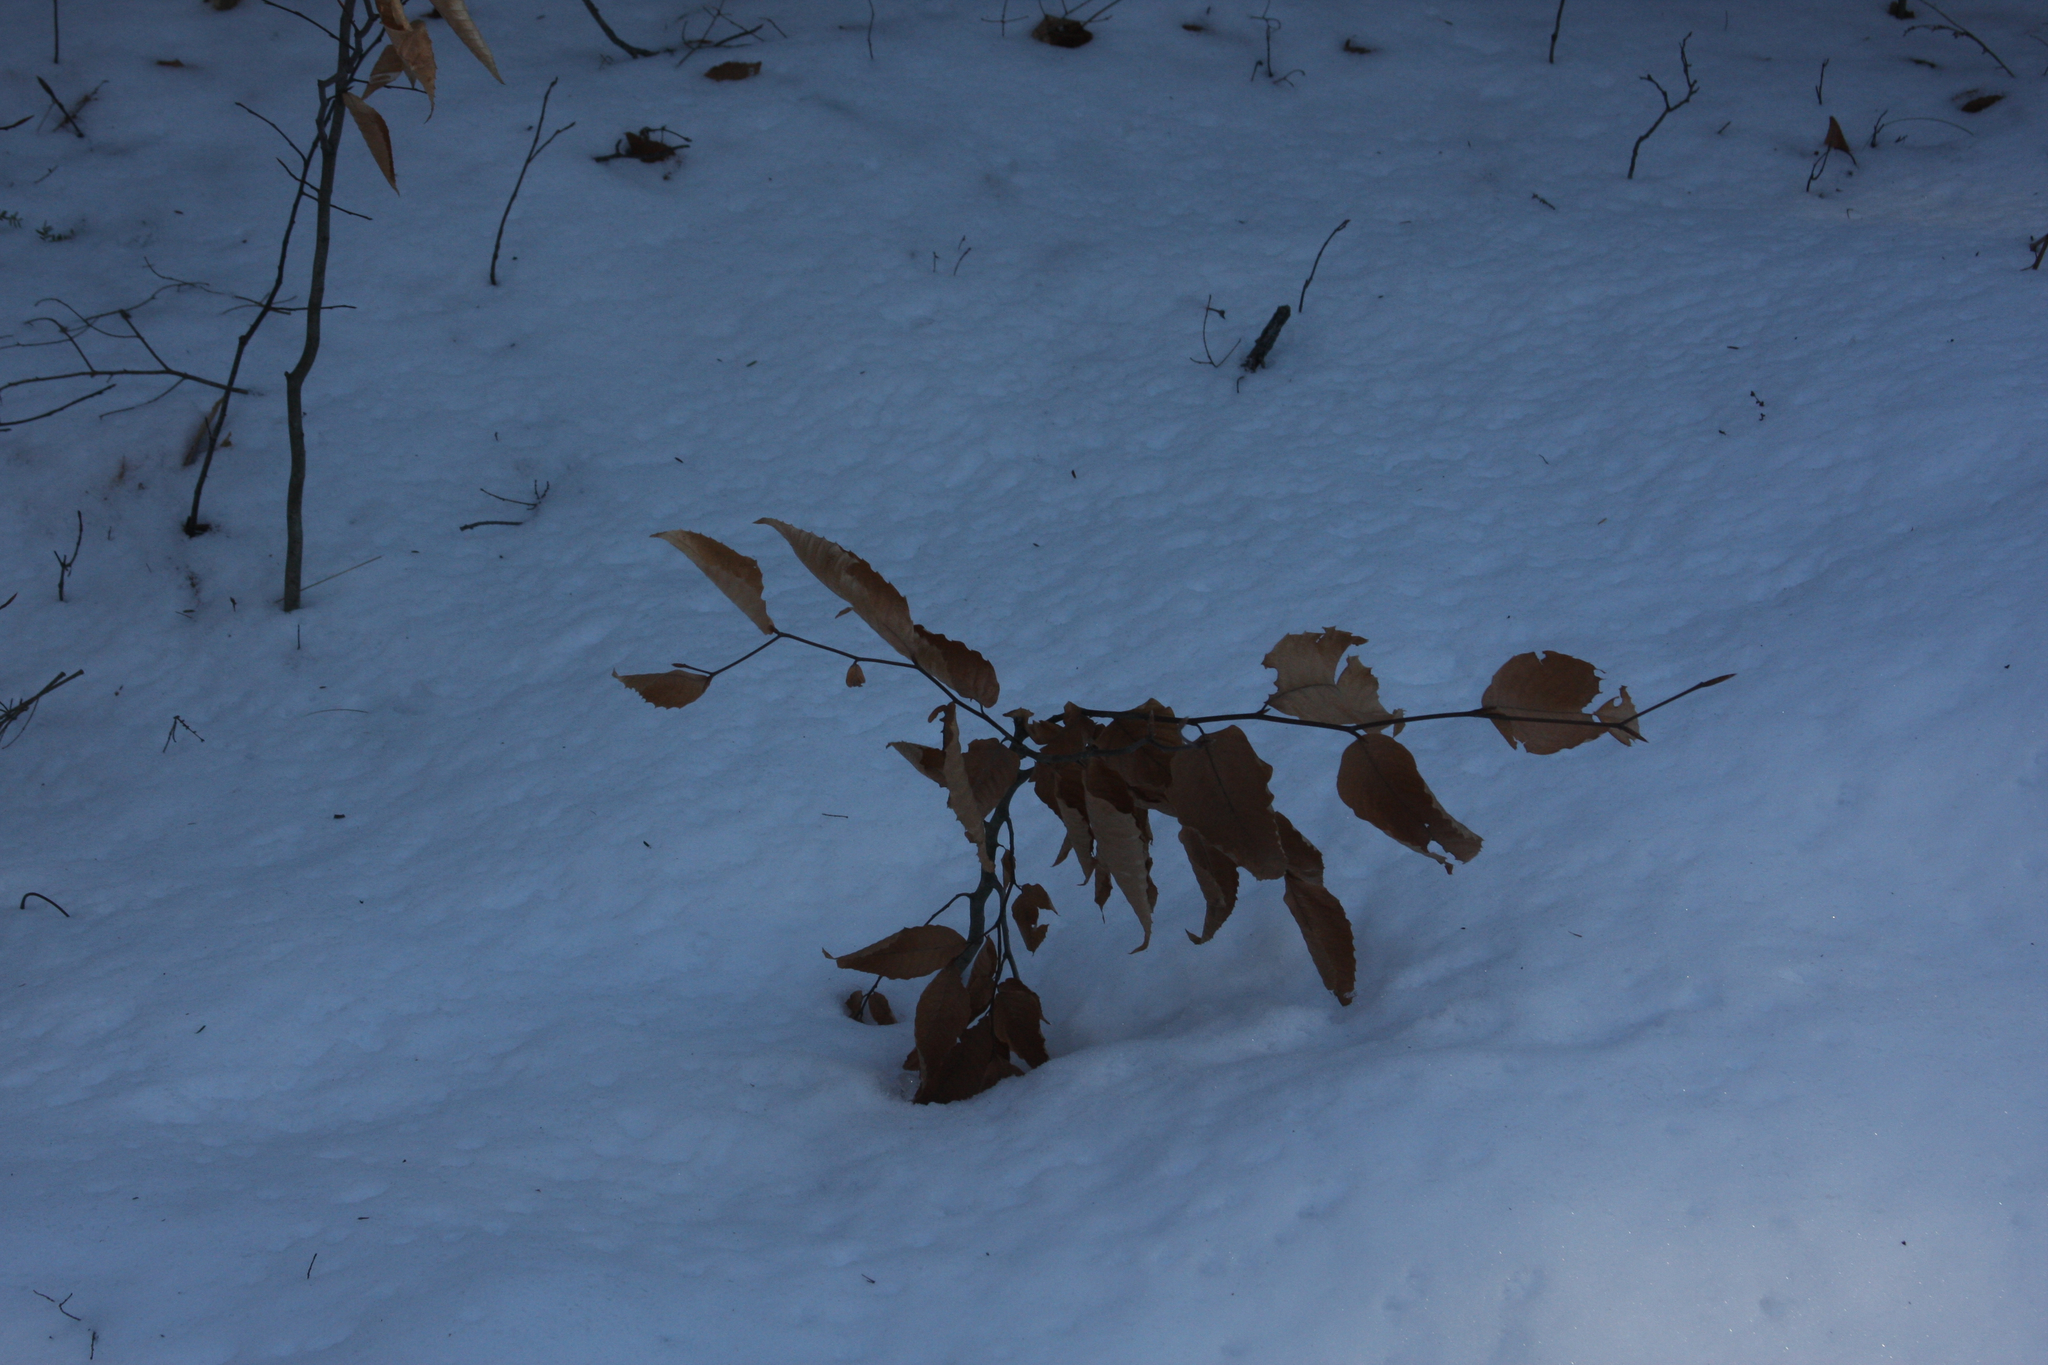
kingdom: Plantae
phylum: Tracheophyta
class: Magnoliopsida
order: Fagales
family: Fagaceae
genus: Fagus
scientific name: Fagus grandifolia
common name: American beech
